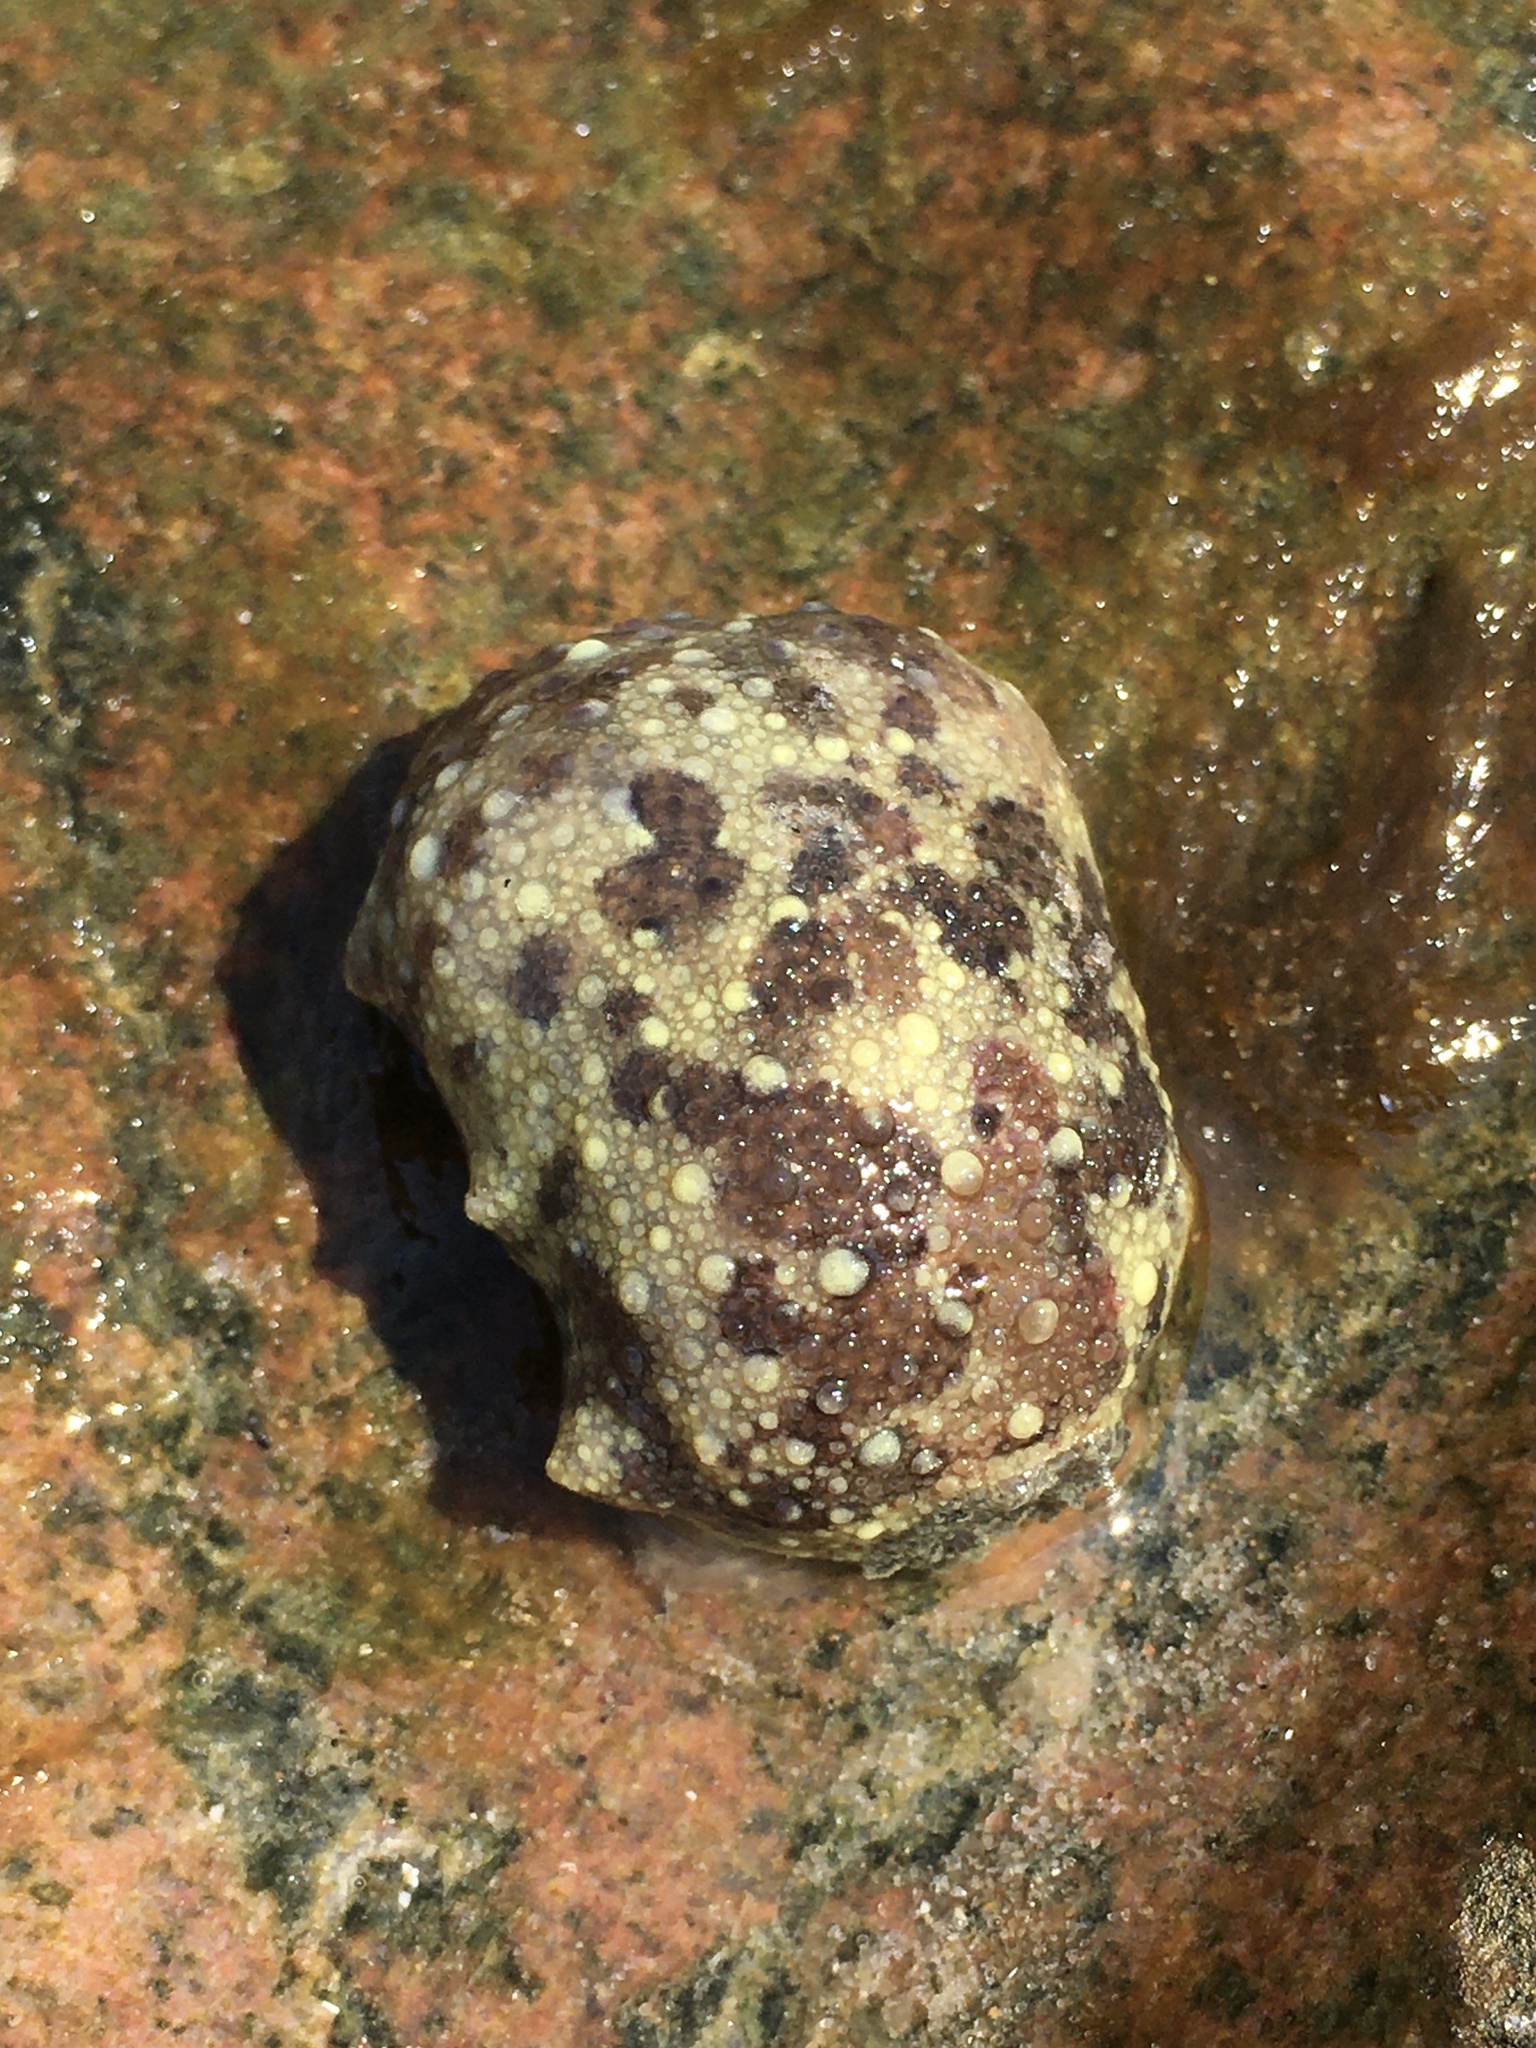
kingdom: Animalia
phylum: Mollusca
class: Gastropoda
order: Nudibranchia
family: Dorididae
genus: Doris
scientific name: Doris pseudoargus
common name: Sea lemon
